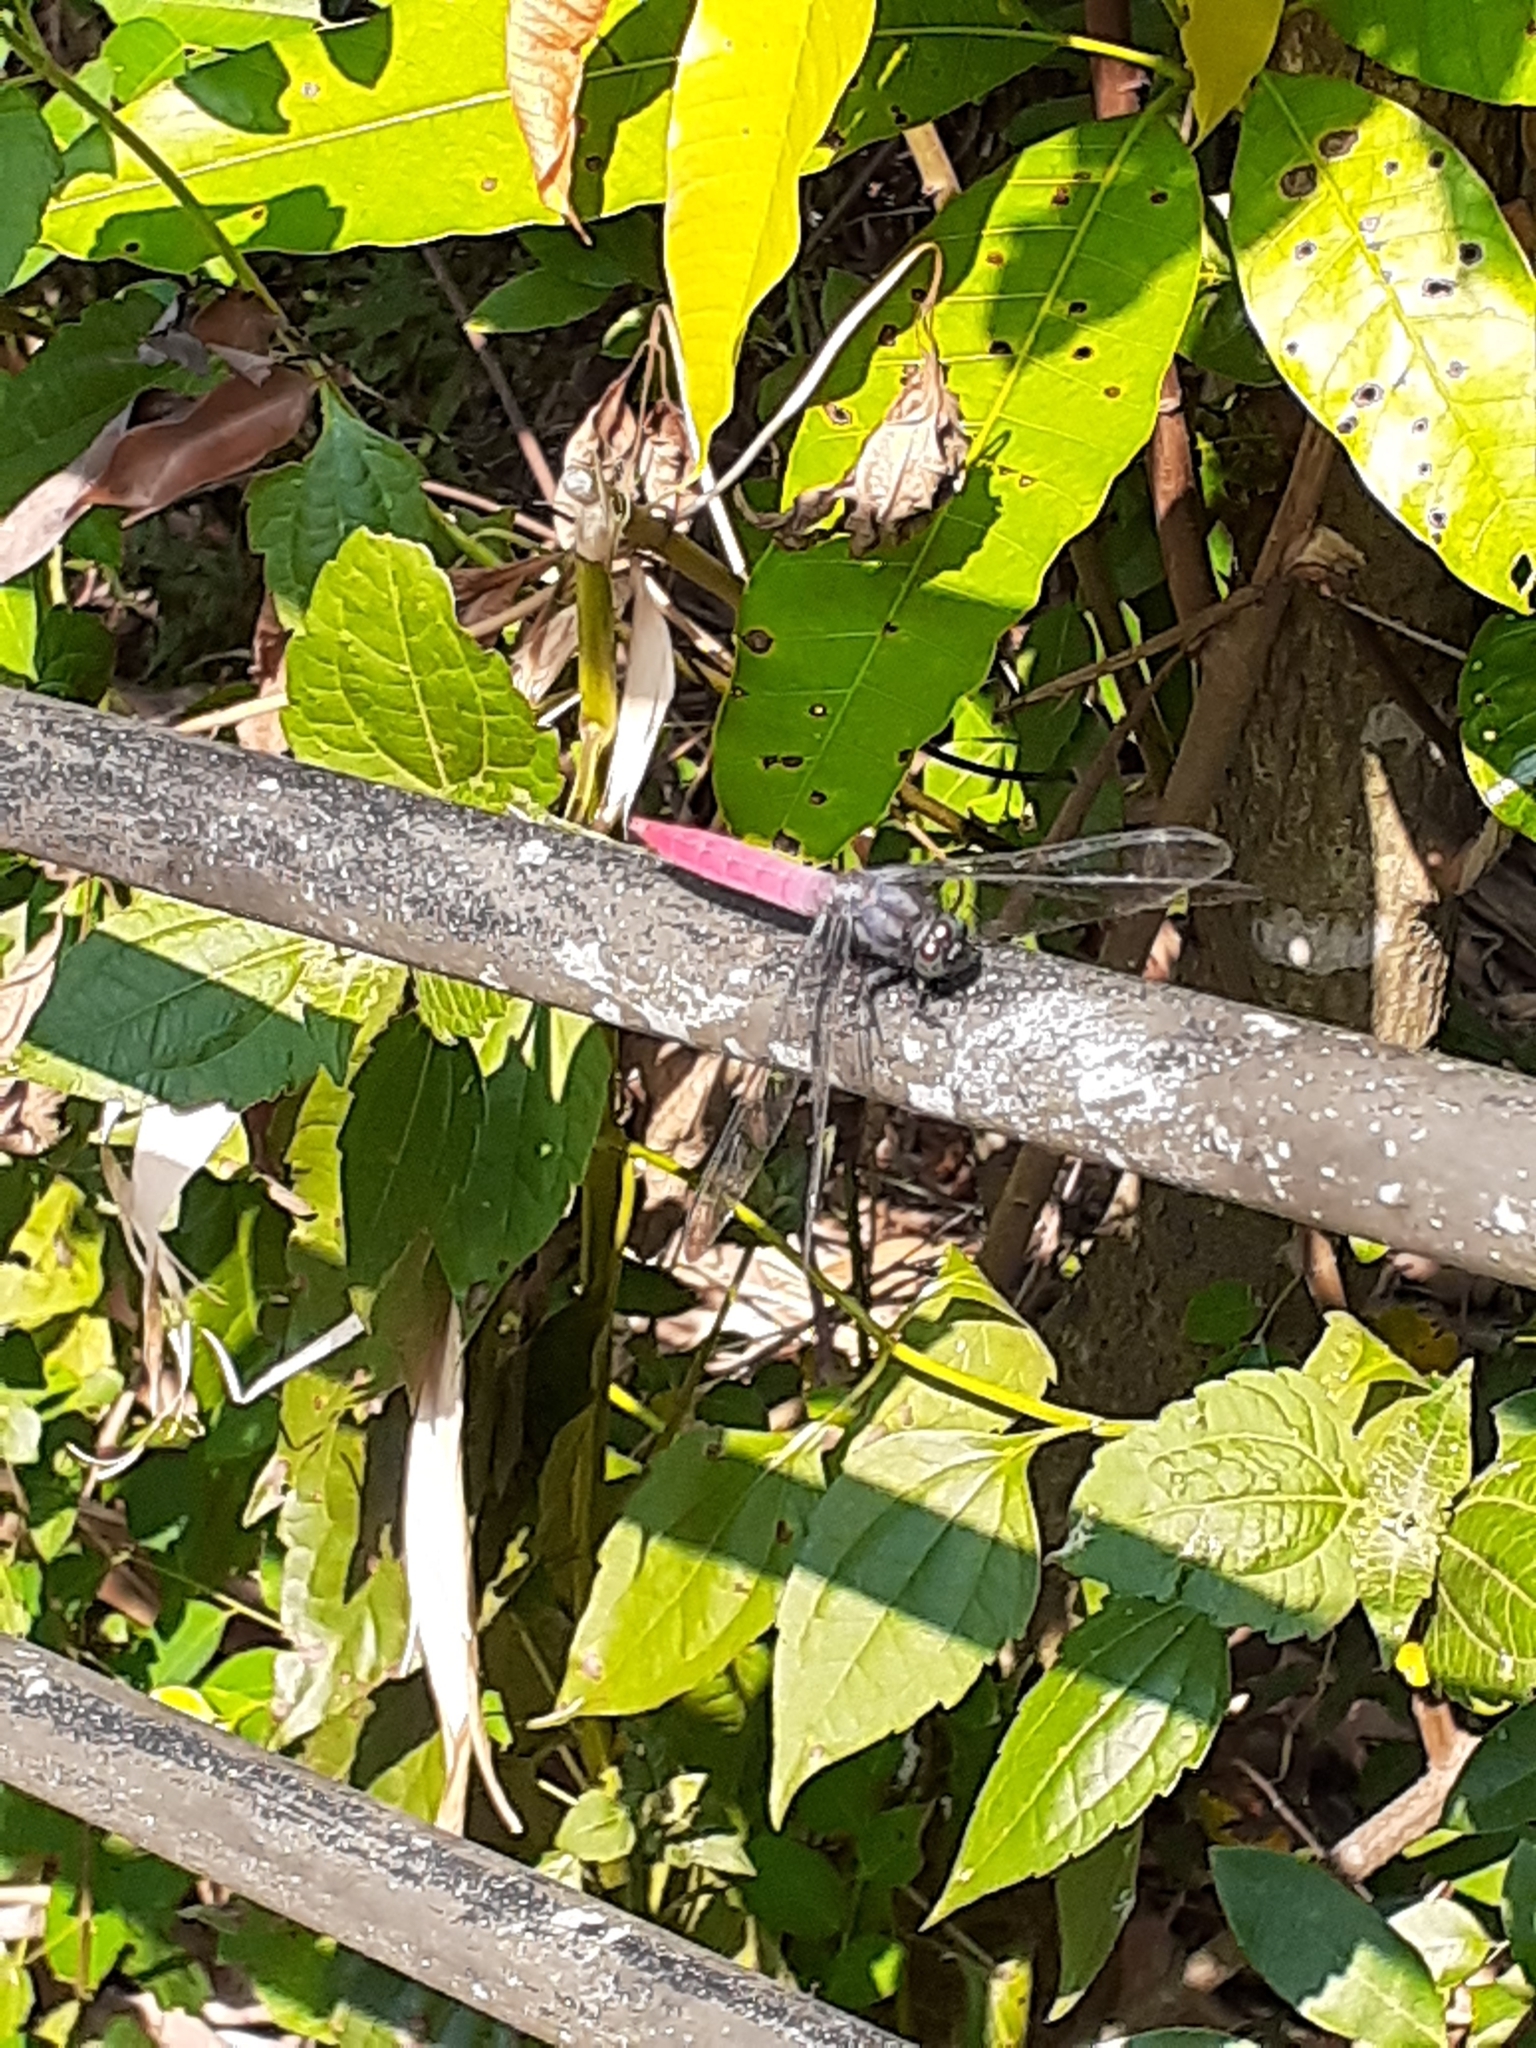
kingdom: Animalia
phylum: Arthropoda
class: Insecta
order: Odonata
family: Libellulidae
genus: Orthetrum
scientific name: Orthetrum pruinosum
